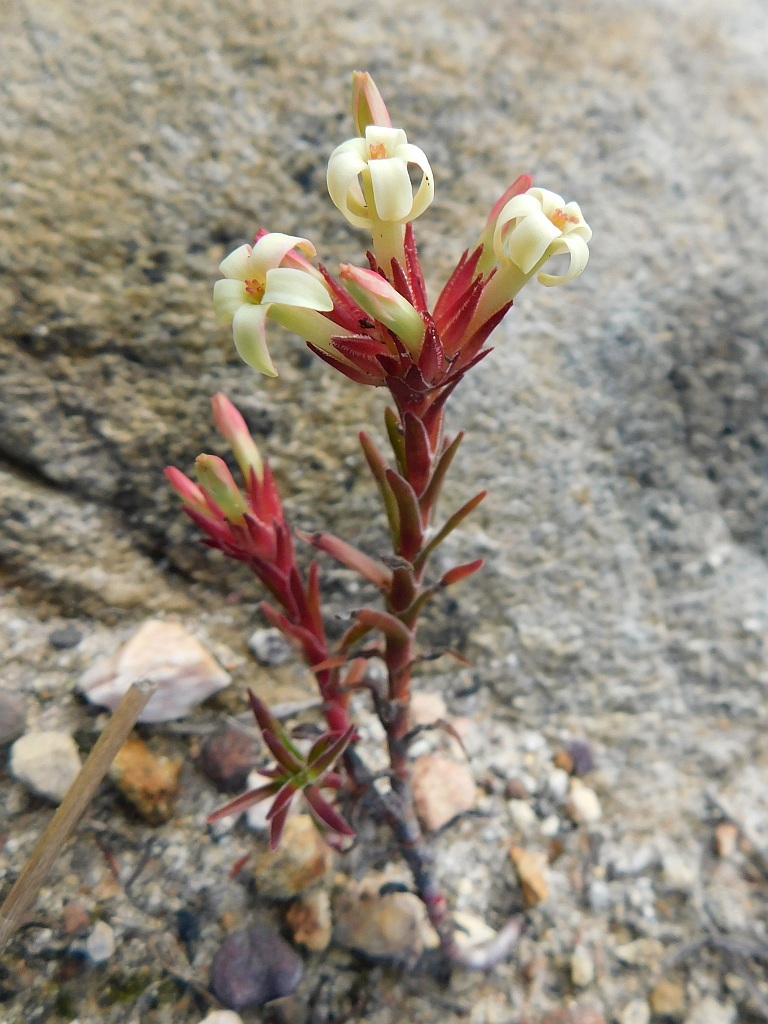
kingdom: Plantae
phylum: Tracheophyta
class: Magnoliopsida
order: Saxifragales
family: Crassulaceae
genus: Crassula
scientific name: Crassula fascicularis
